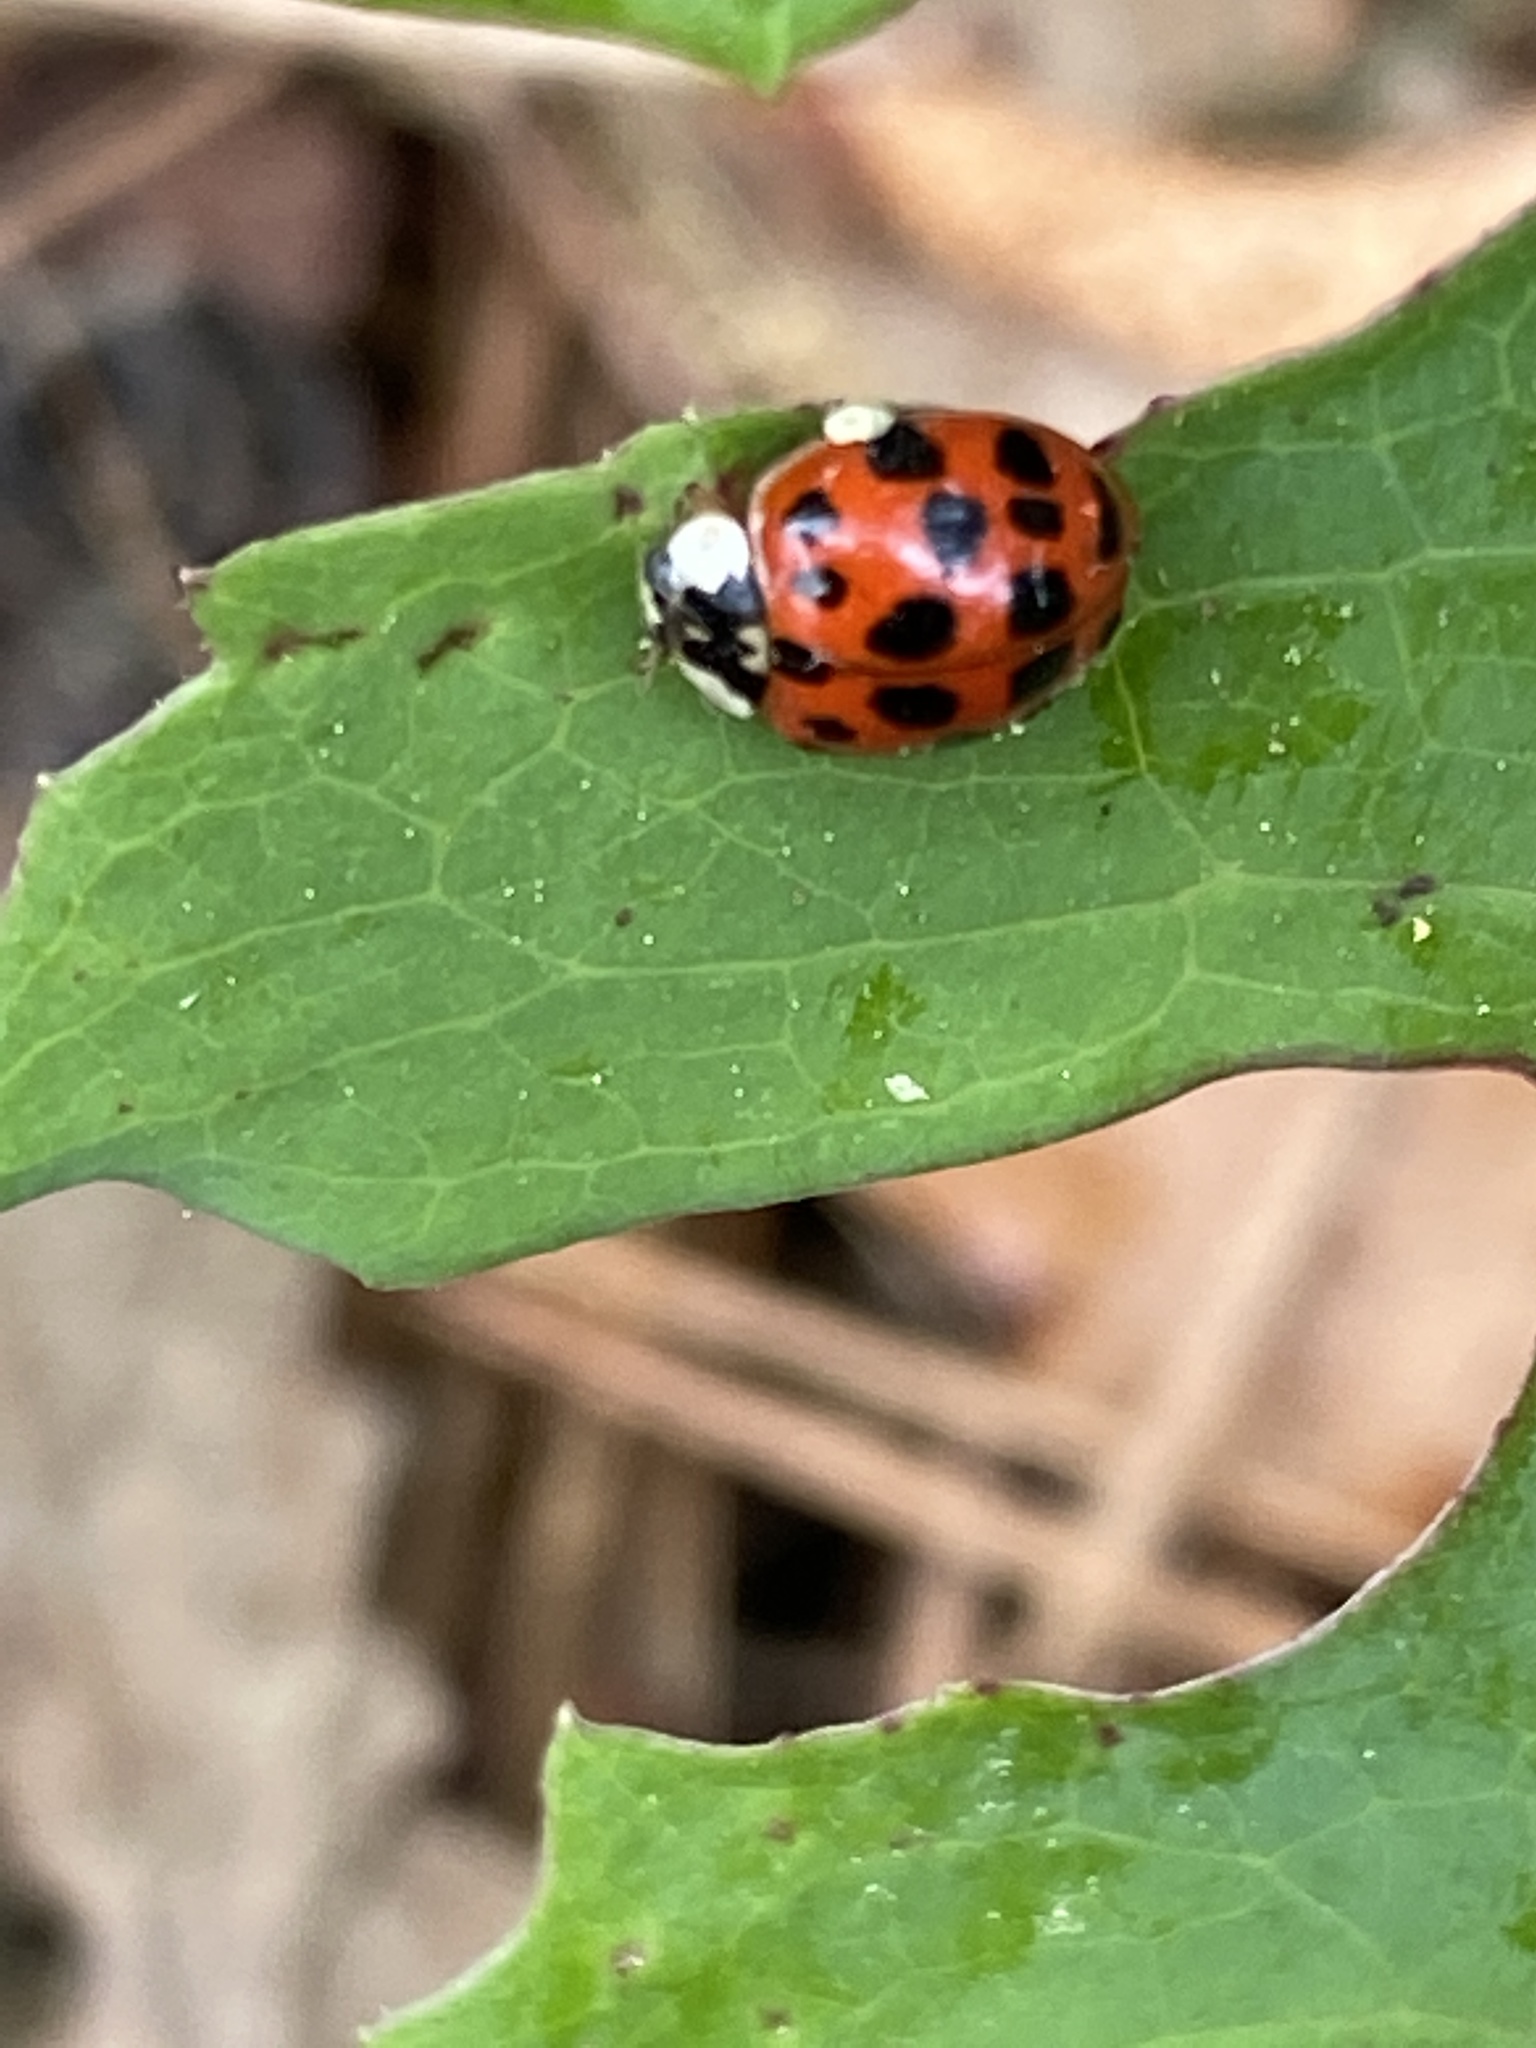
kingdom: Animalia
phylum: Arthropoda
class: Insecta
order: Coleoptera
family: Coccinellidae
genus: Harmonia
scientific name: Harmonia axyridis
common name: Harlequin ladybird
